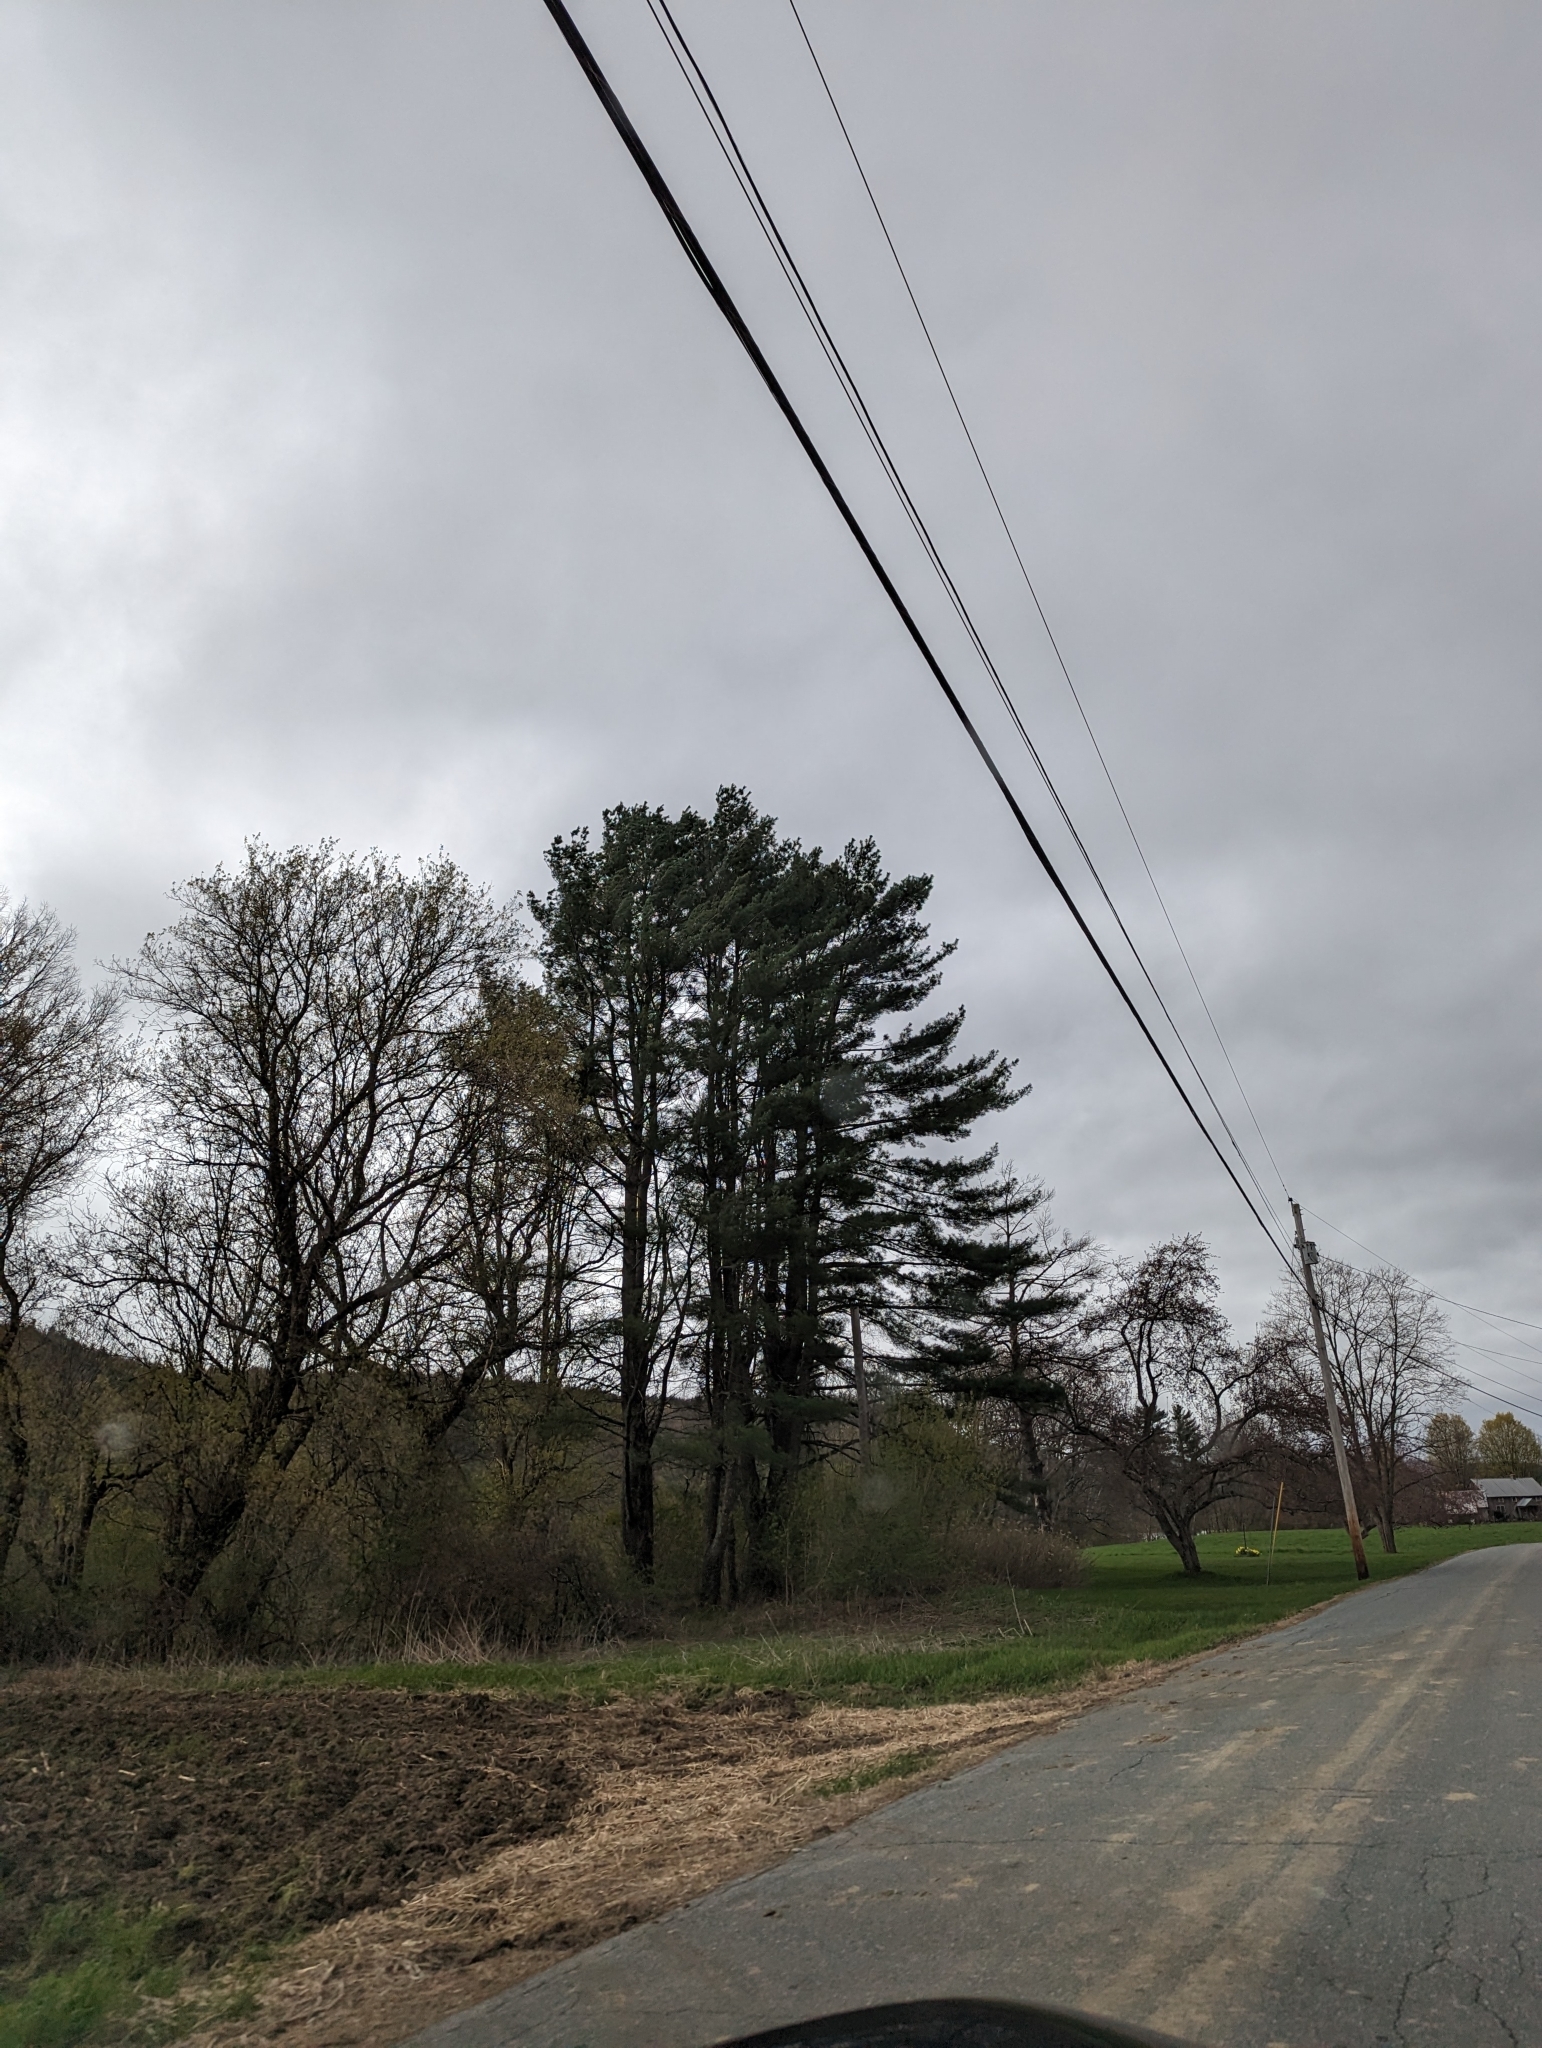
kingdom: Plantae
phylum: Tracheophyta
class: Pinopsida
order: Pinales
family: Pinaceae
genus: Pinus
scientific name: Pinus strobus
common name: Weymouth pine
